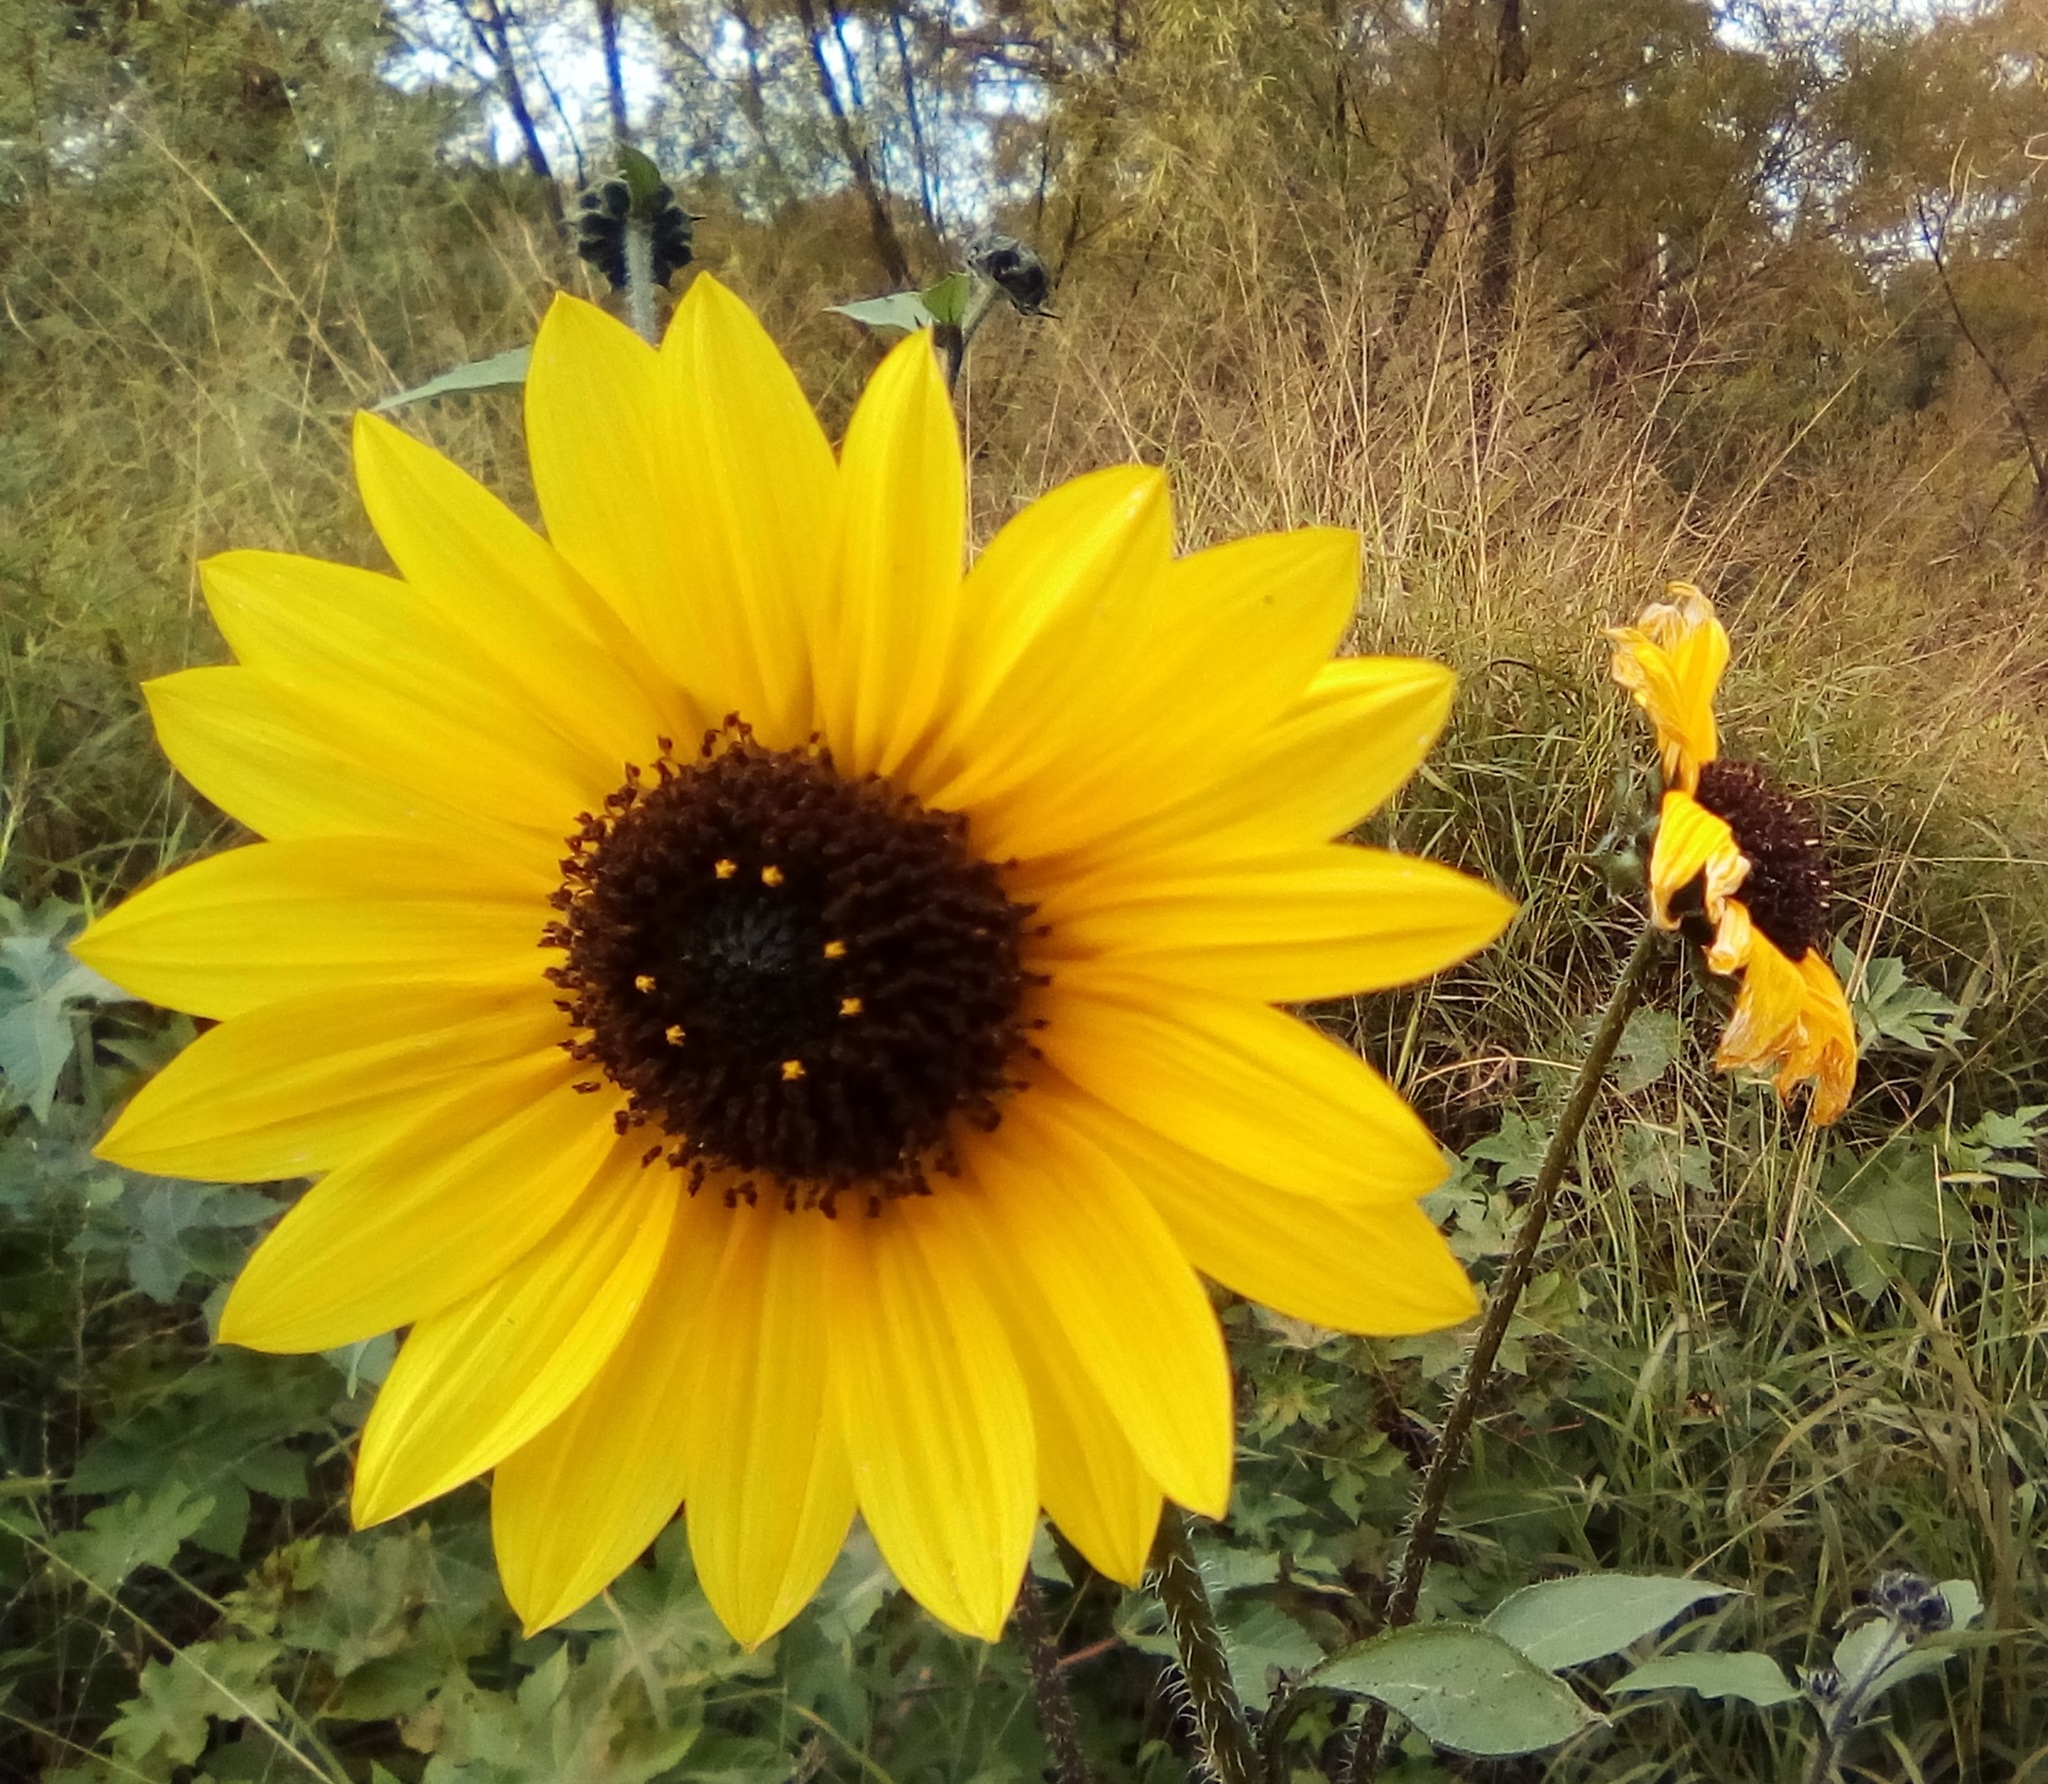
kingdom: Plantae
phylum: Tracheophyta
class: Magnoliopsida
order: Asterales
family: Asteraceae
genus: Helianthus
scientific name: Helianthus annuus
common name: Sunflower
